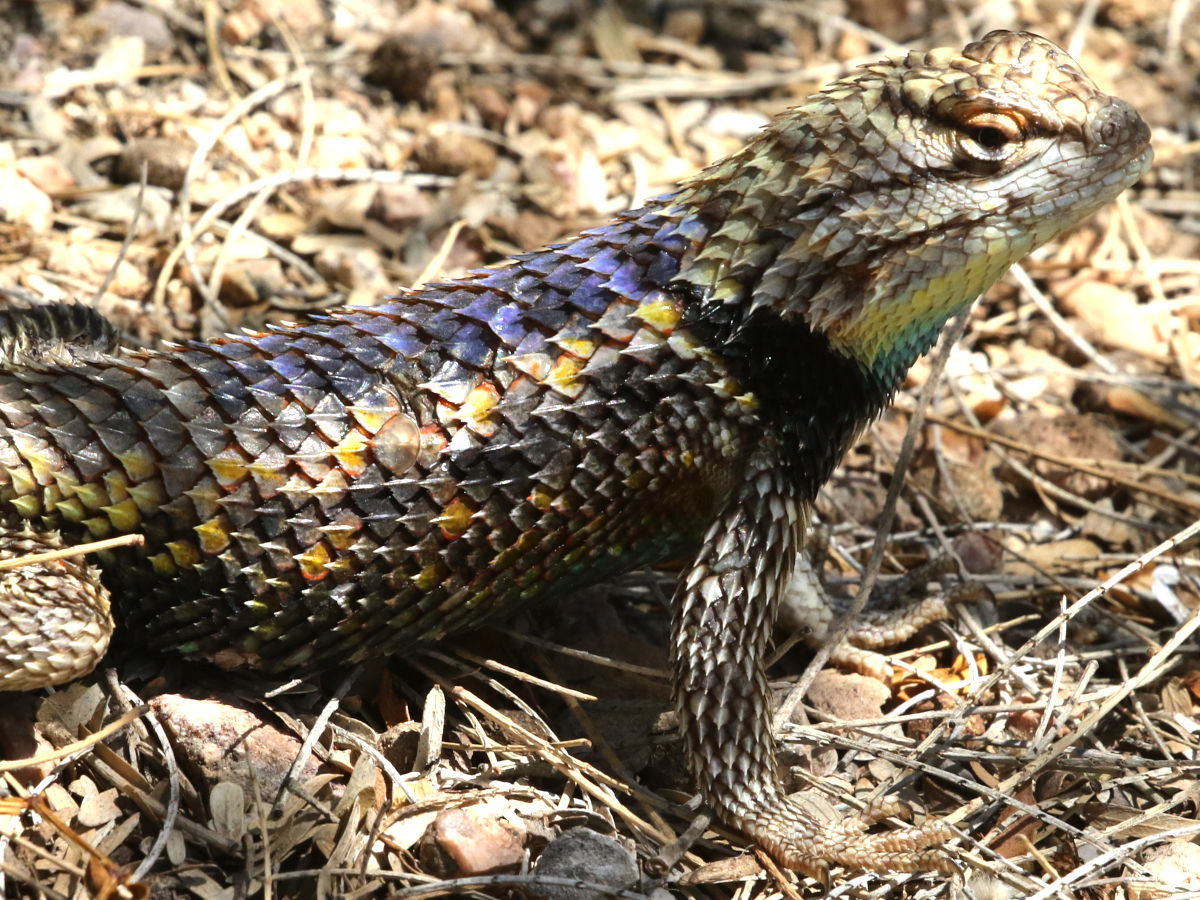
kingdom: Animalia
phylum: Chordata
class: Squamata
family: Phrynosomatidae
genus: Sceloporus
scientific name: Sceloporus magister
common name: Desert spiny lizard
